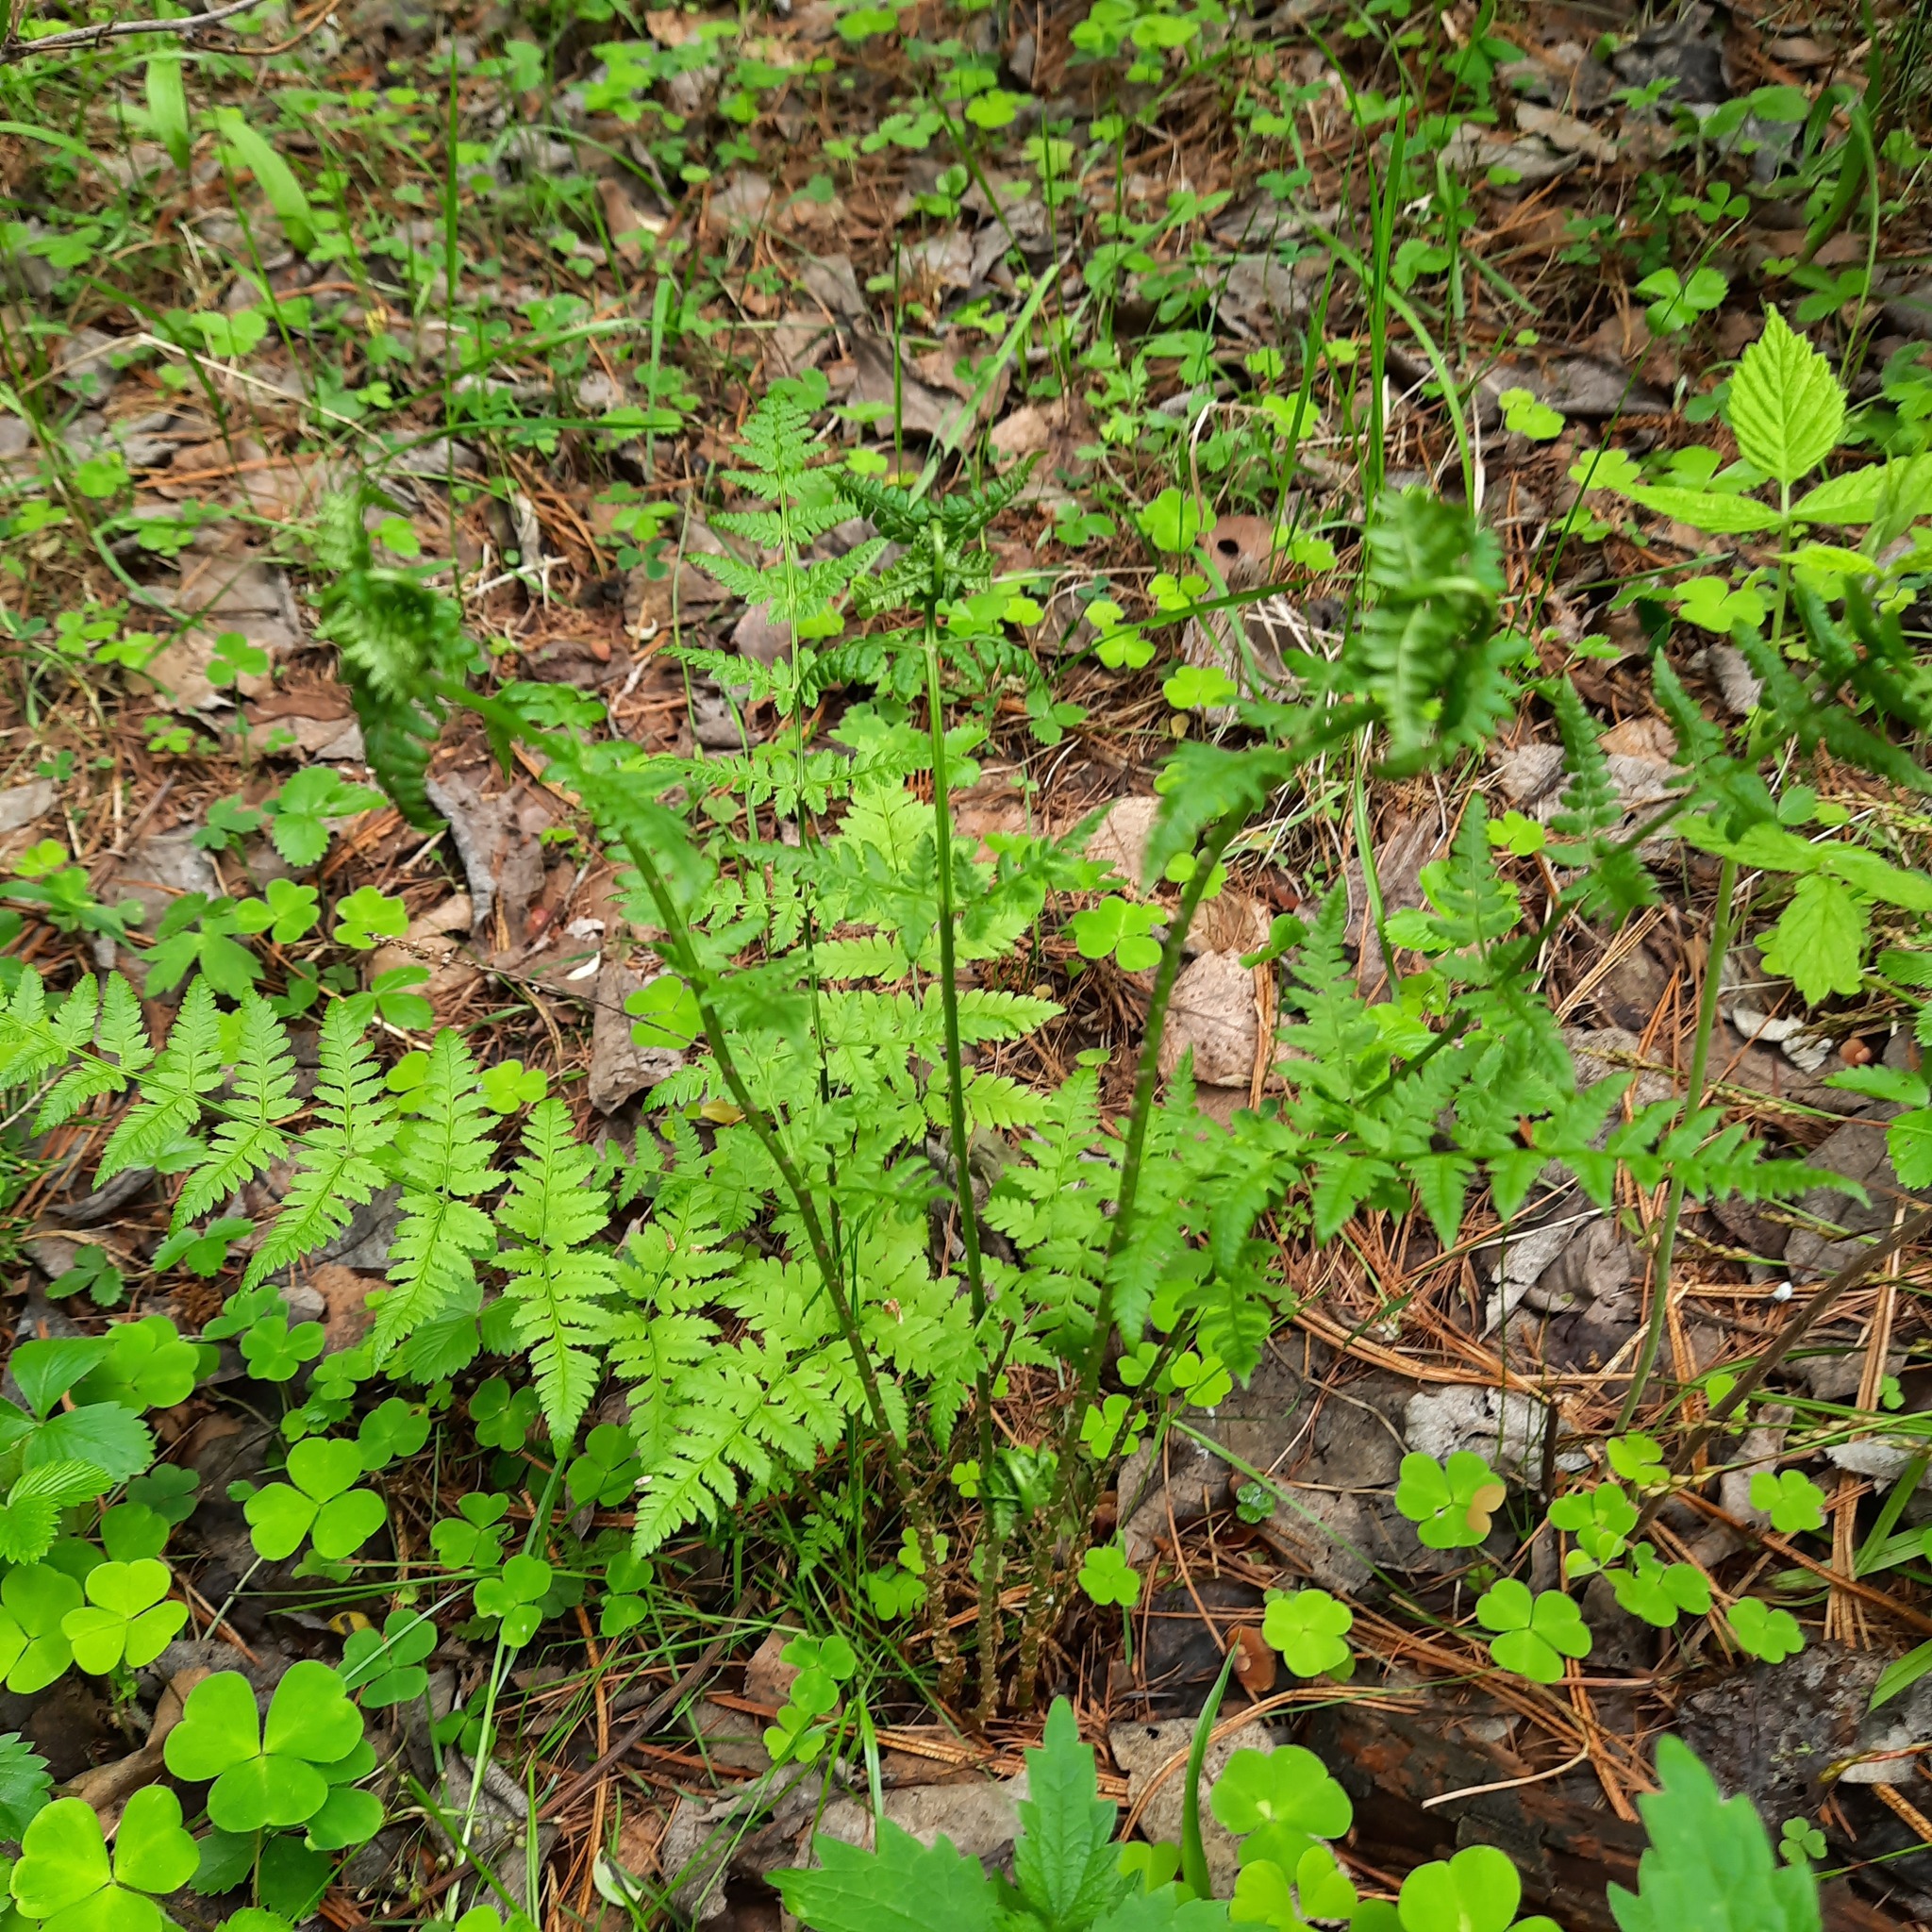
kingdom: Plantae
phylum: Tracheophyta
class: Polypodiopsida
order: Polypodiales
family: Dryopteridaceae
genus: Dryopteris
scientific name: Dryopteris carthusiana
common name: Narrow buckler-fern
